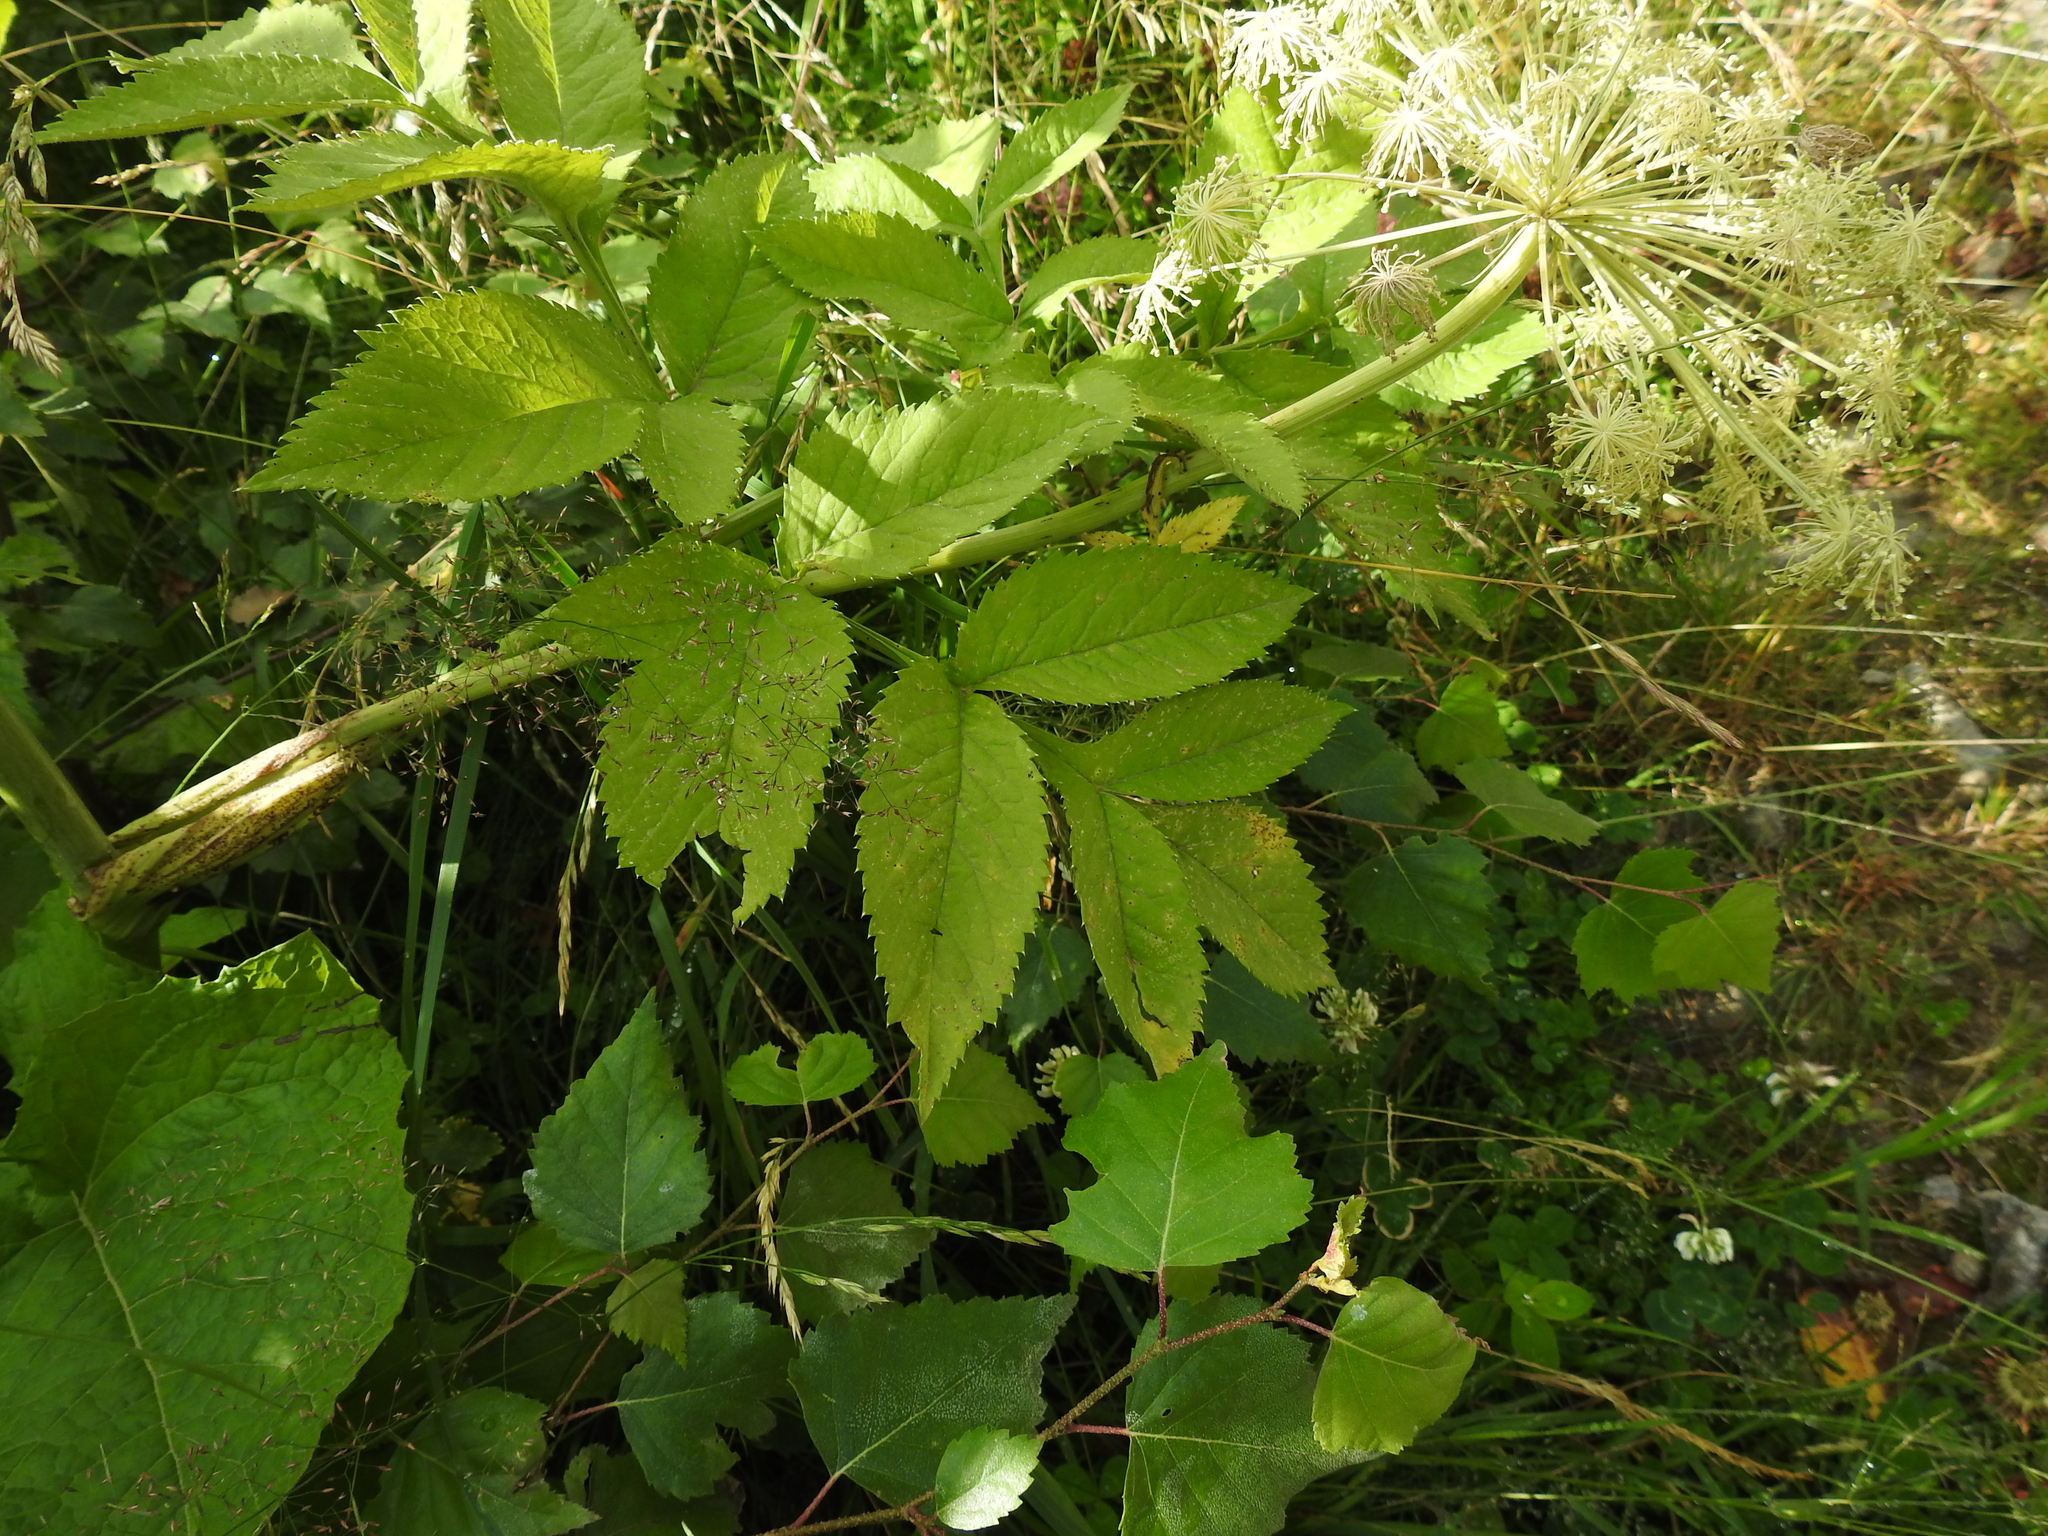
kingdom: Plantae
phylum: Tracheophyta
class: Magnoliopsida
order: Apiales
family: Apiaceae
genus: Angelica
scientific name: Angelica razulii
